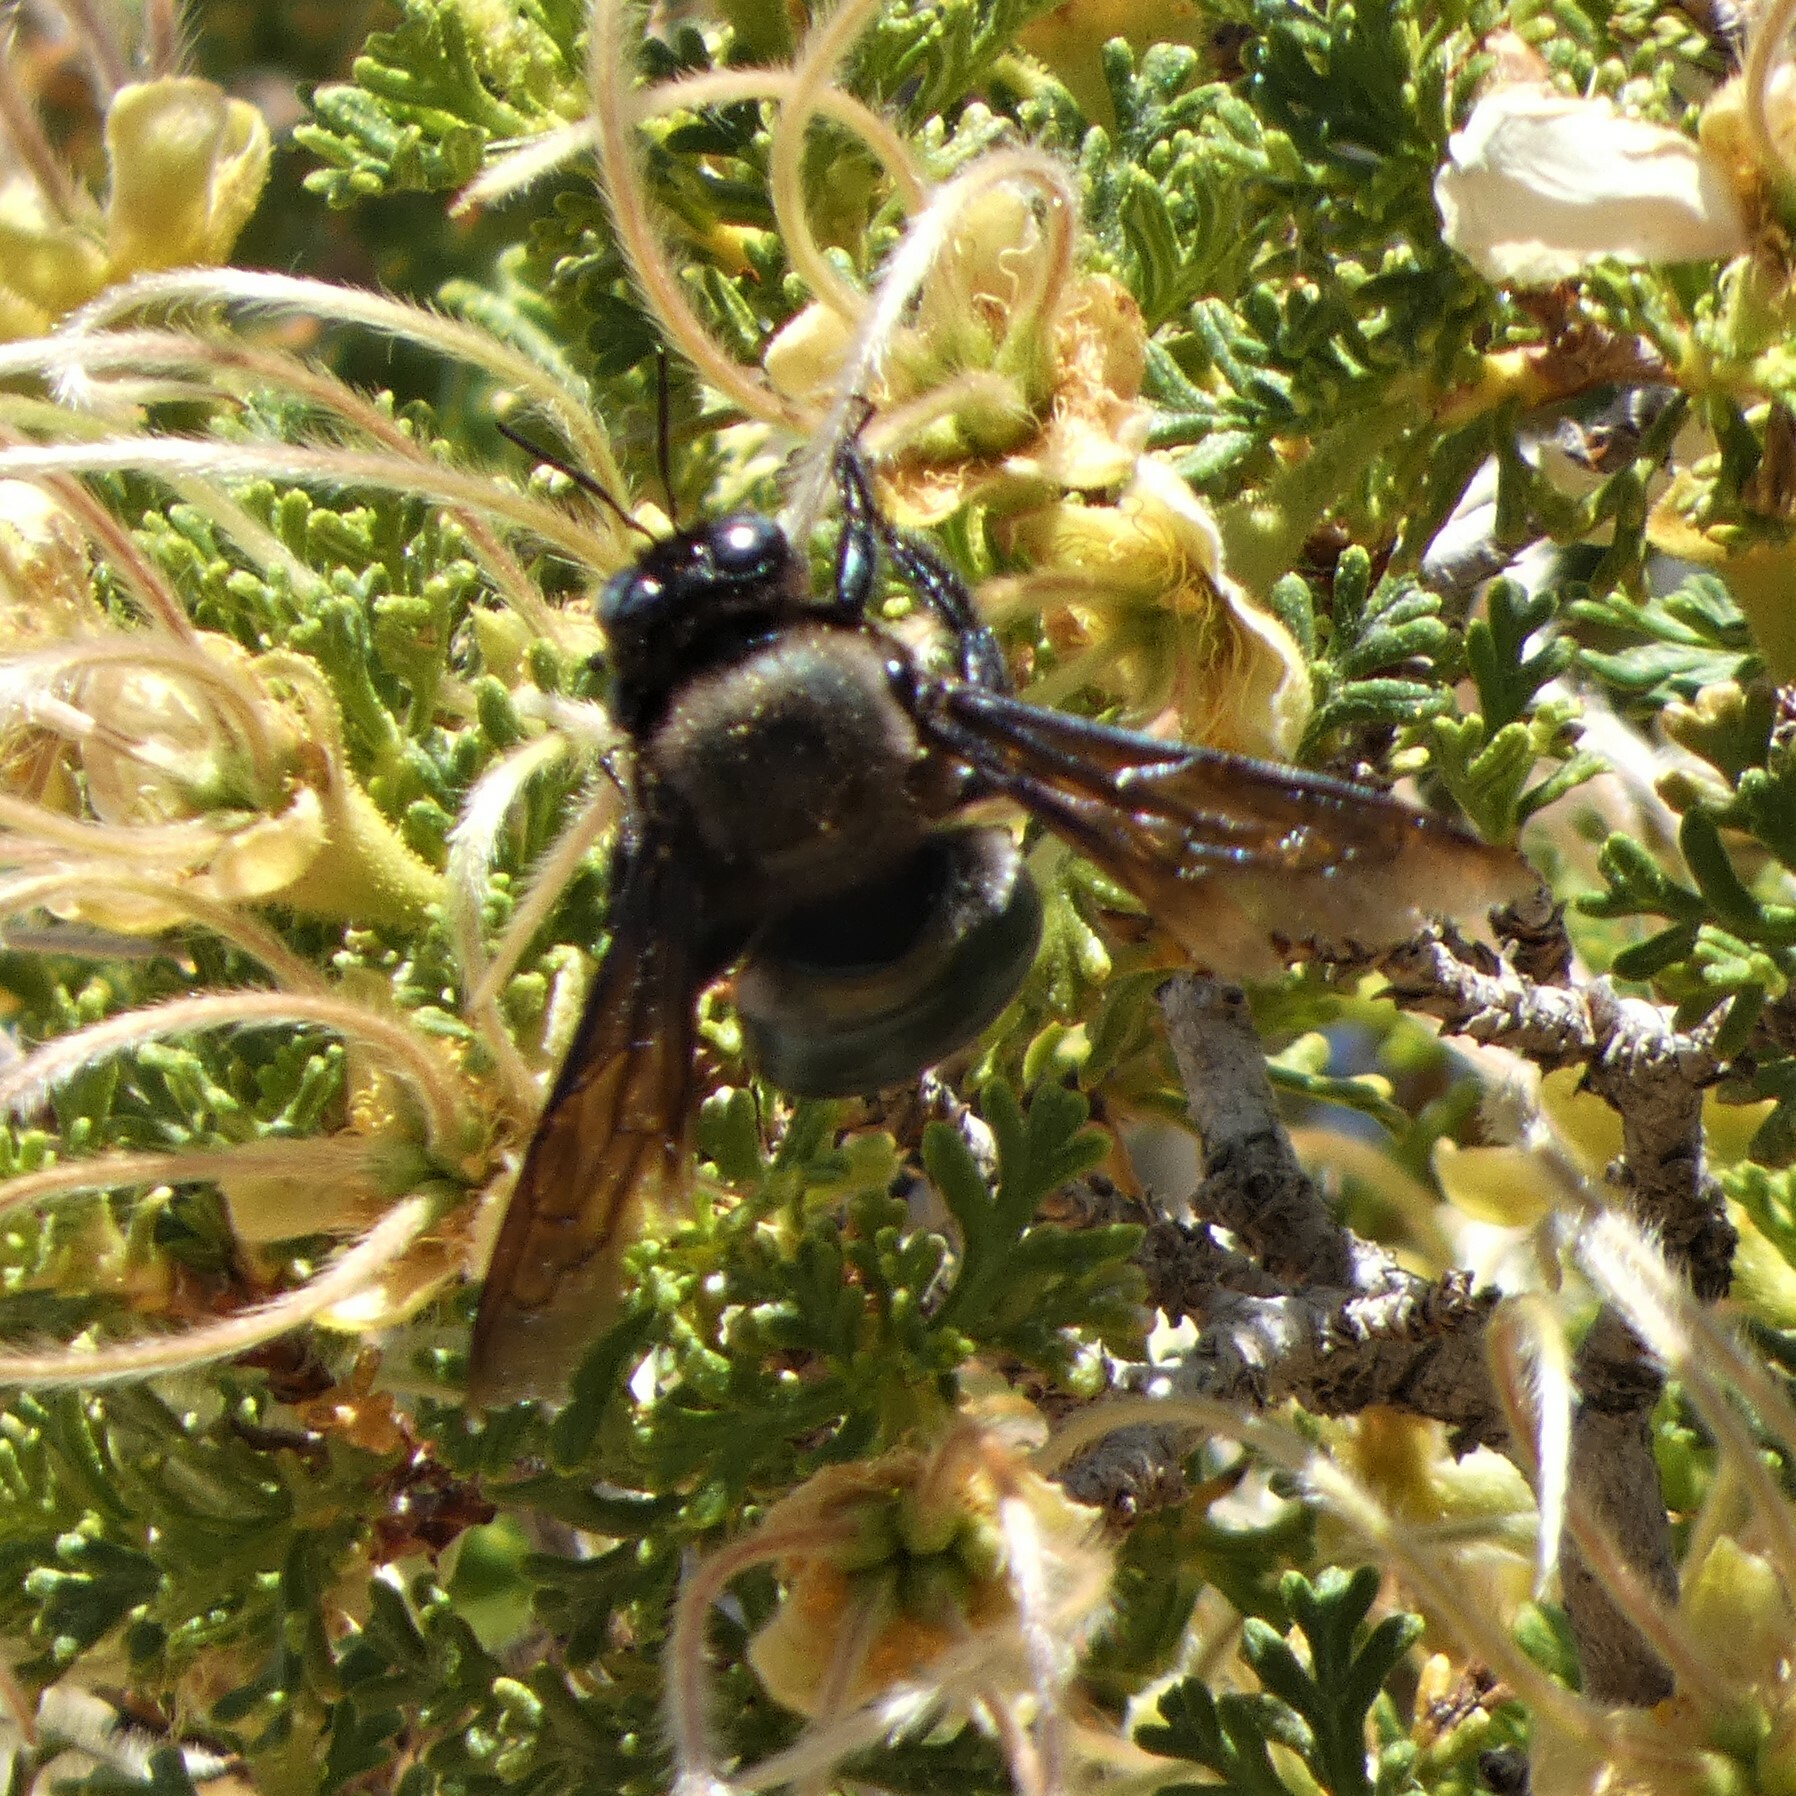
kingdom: Animalia
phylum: Arthropoda
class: Insecta
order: Hymenoptera
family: Apidae
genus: Xylocopa
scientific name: Xylocopa californica
